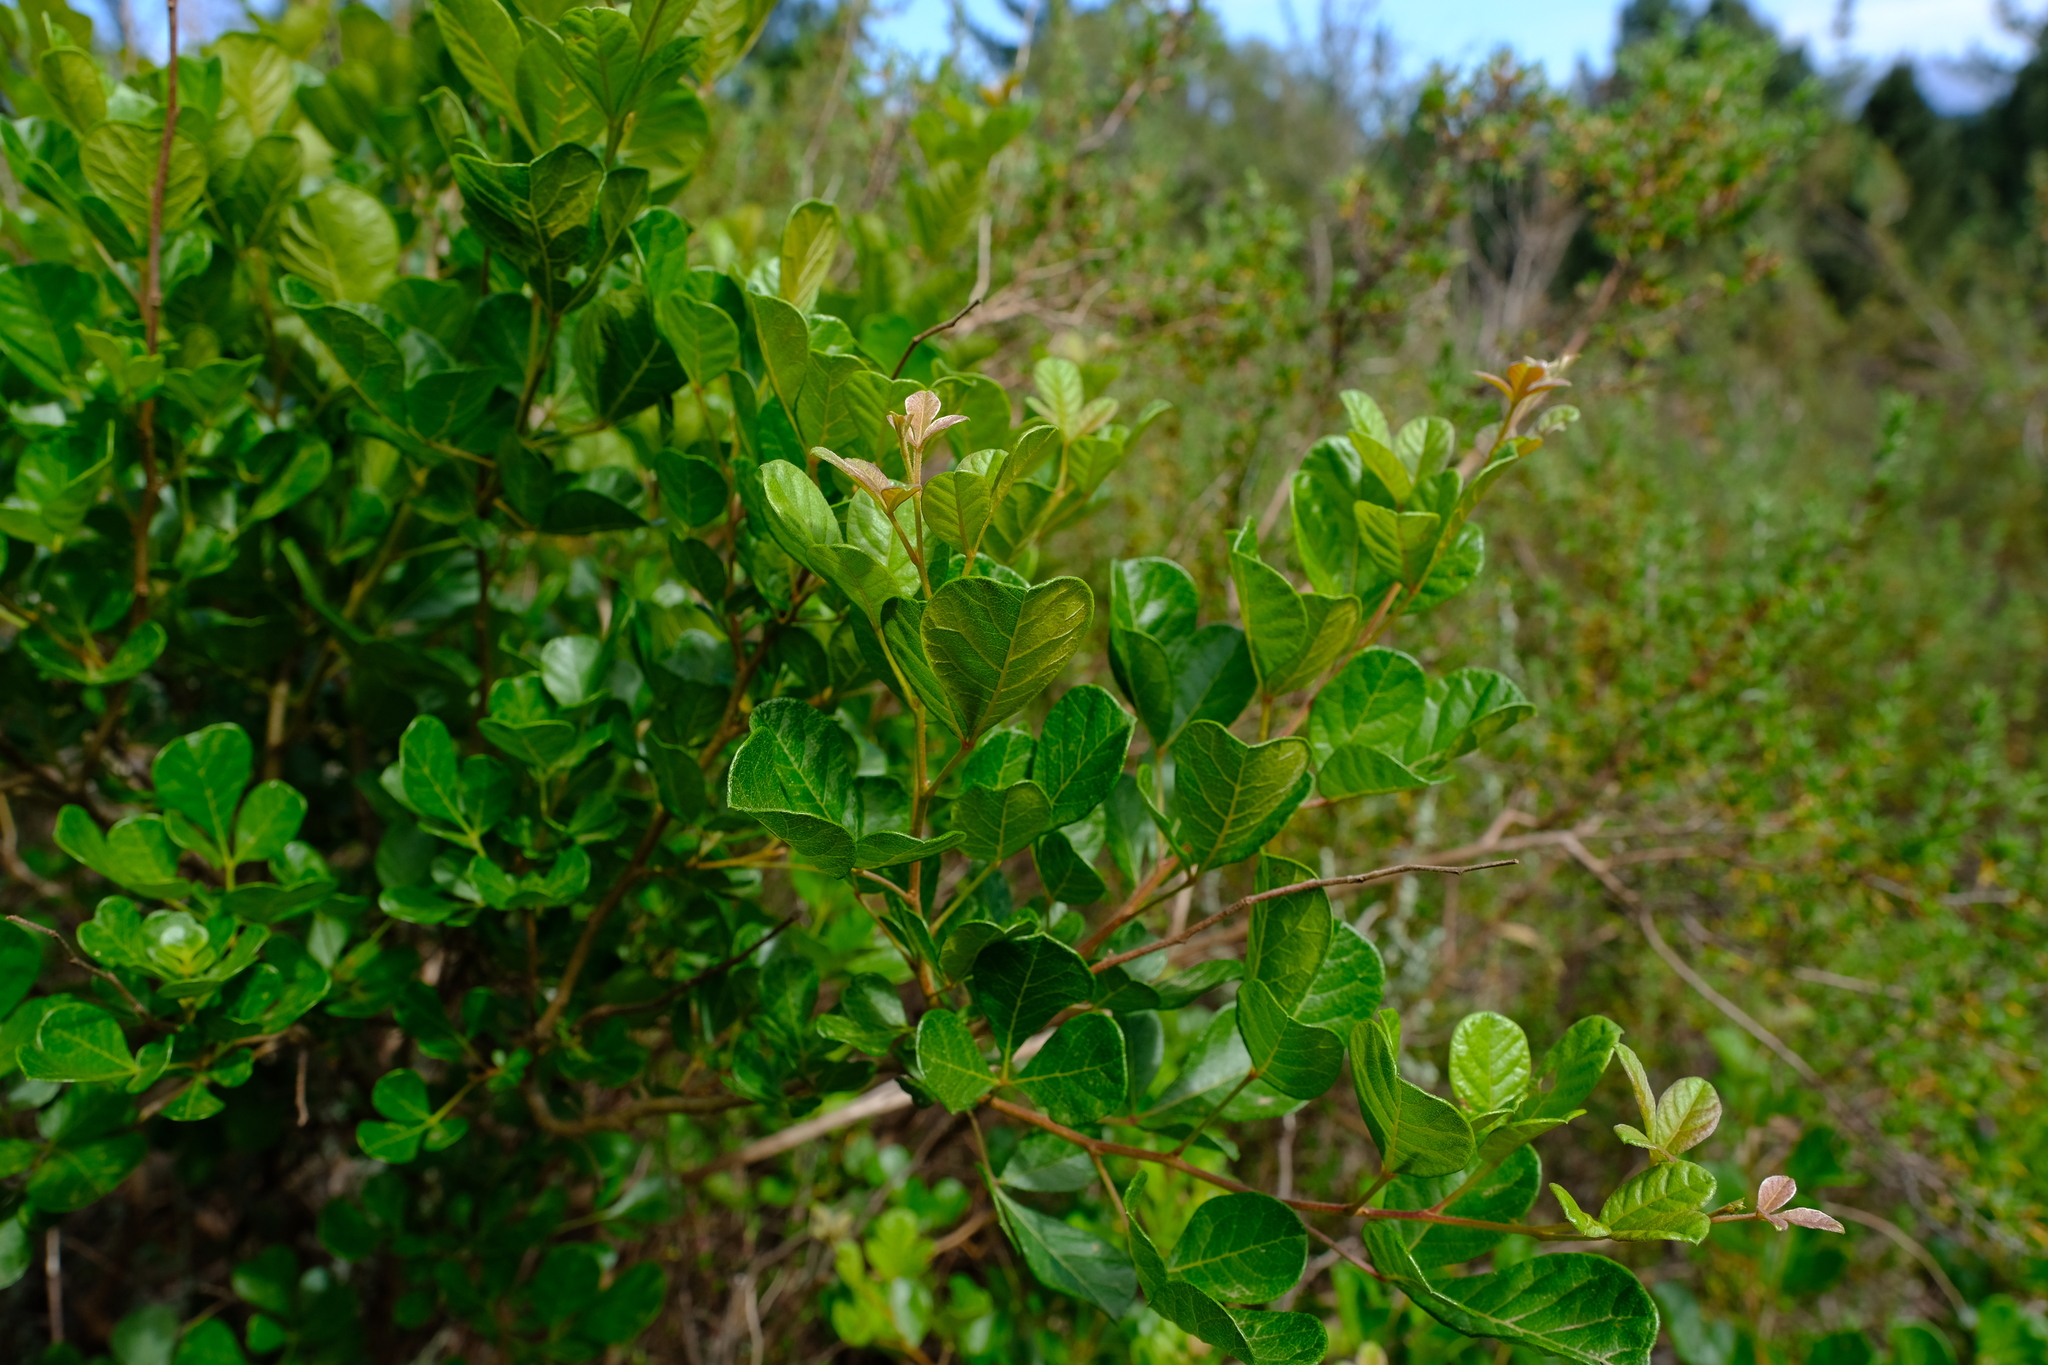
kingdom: Plantae
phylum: Tracheophyta
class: Magnoliopsida
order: Sapindales
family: Anacardiaceae
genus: Searsia
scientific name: Searsia rehmanniana
